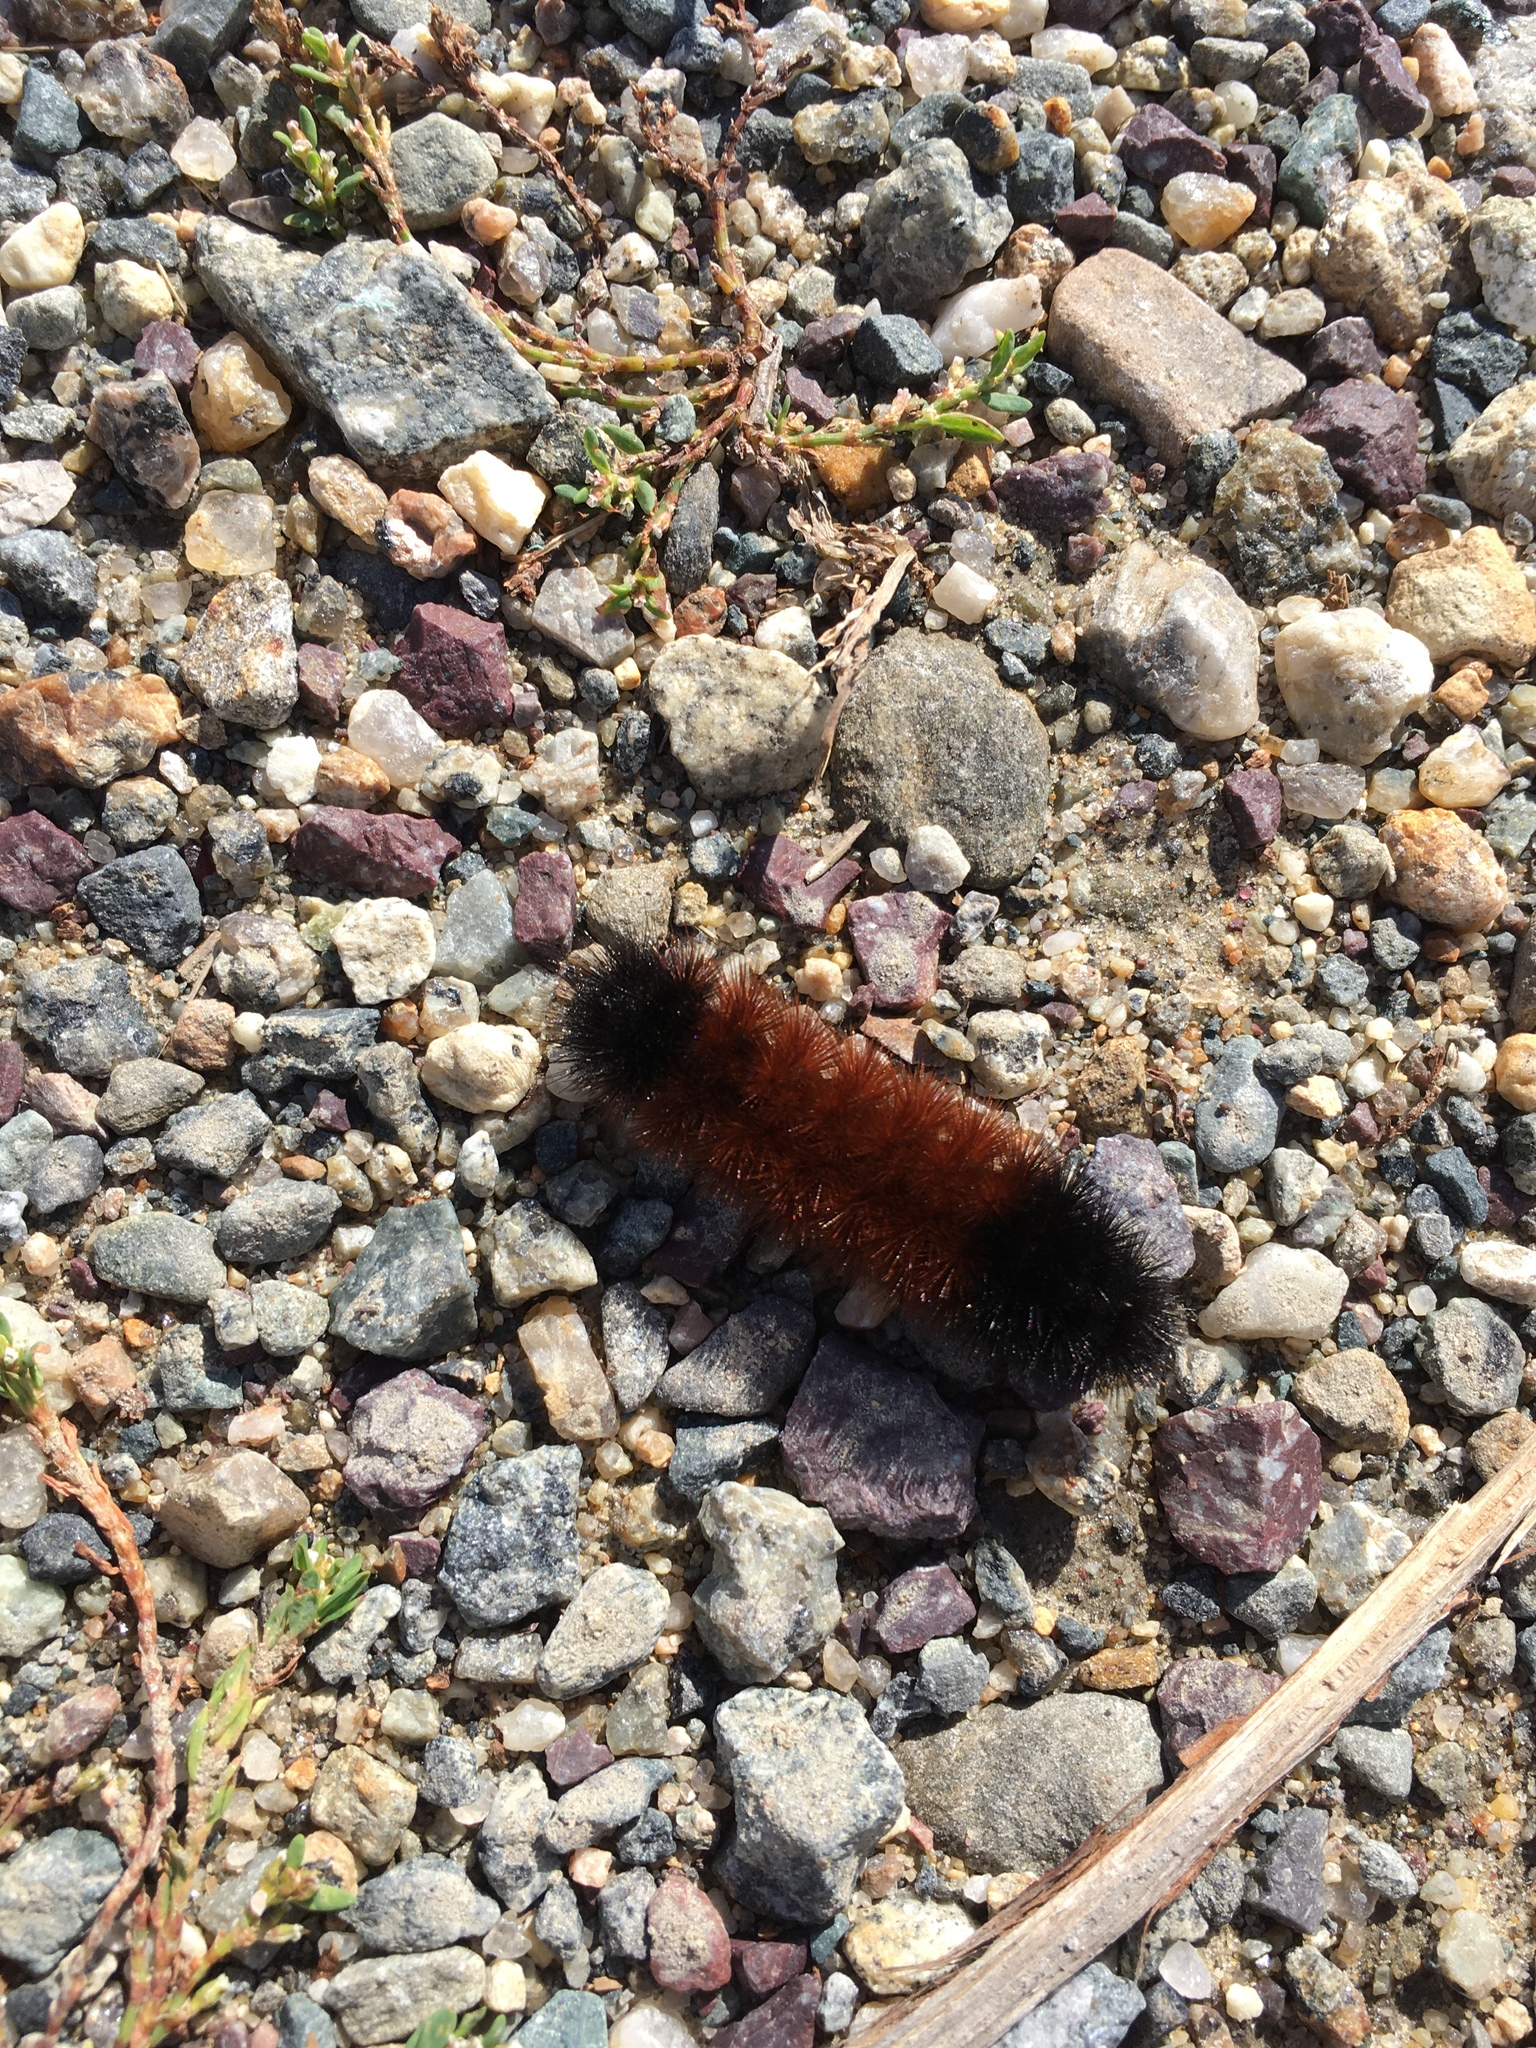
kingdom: Animalia
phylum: Arthropoda
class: Insecta
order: Lepidoptera
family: Erebidae
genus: Pyrrharctia
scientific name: Pyrrharctia isabella
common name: Isabella tiger moth
